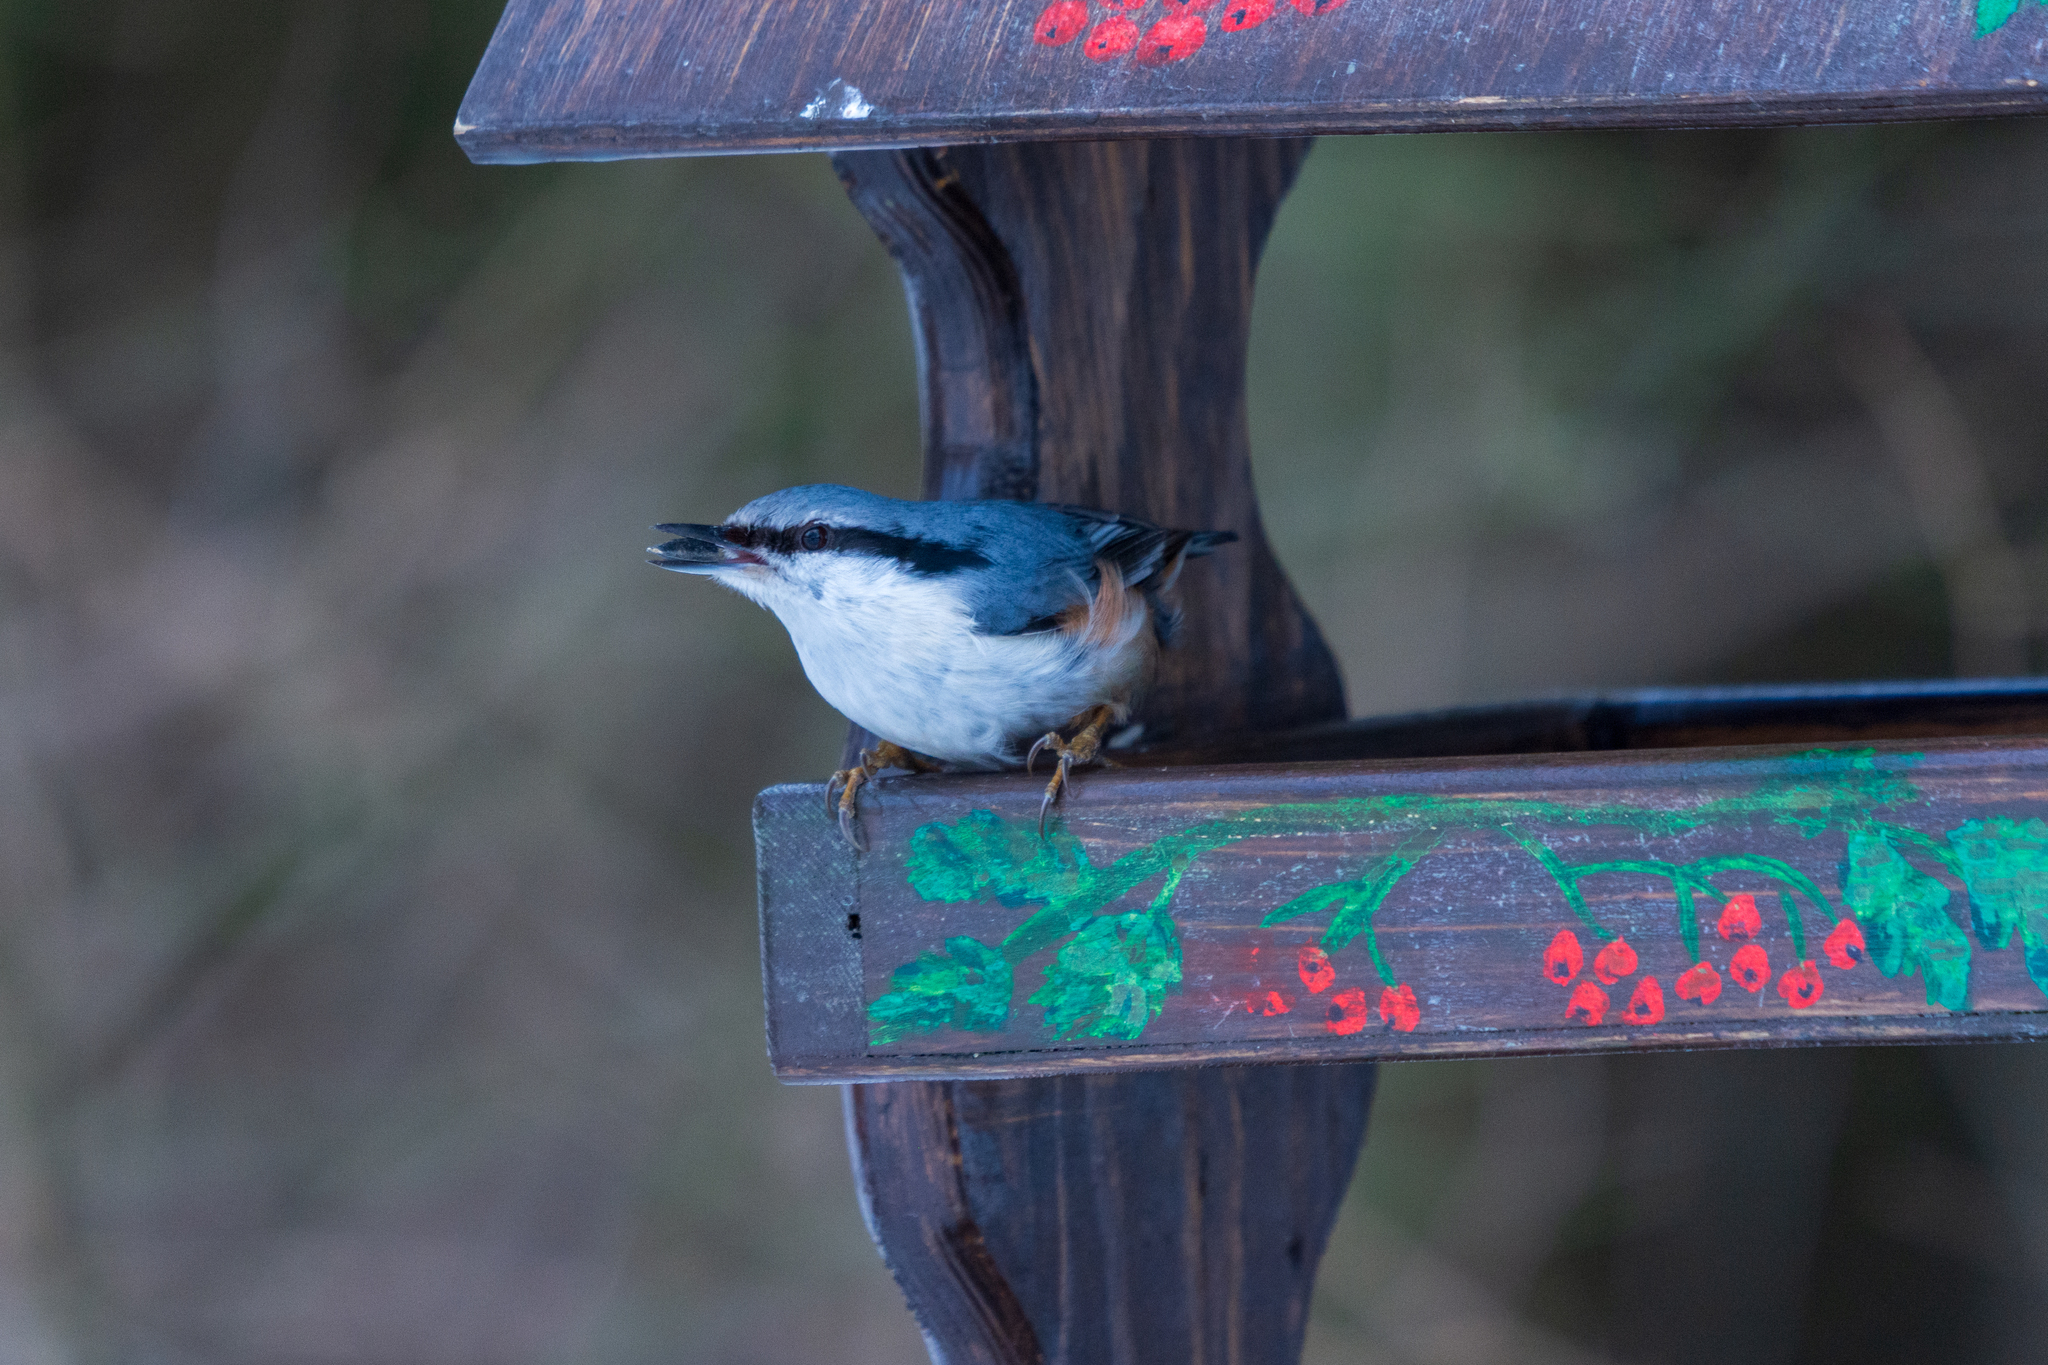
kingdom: Animalia
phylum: Chordata
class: Aves
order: Passeriformes
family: Sittidae
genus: Sitta
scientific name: Sitta europaea
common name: Eurasian nuthatch
